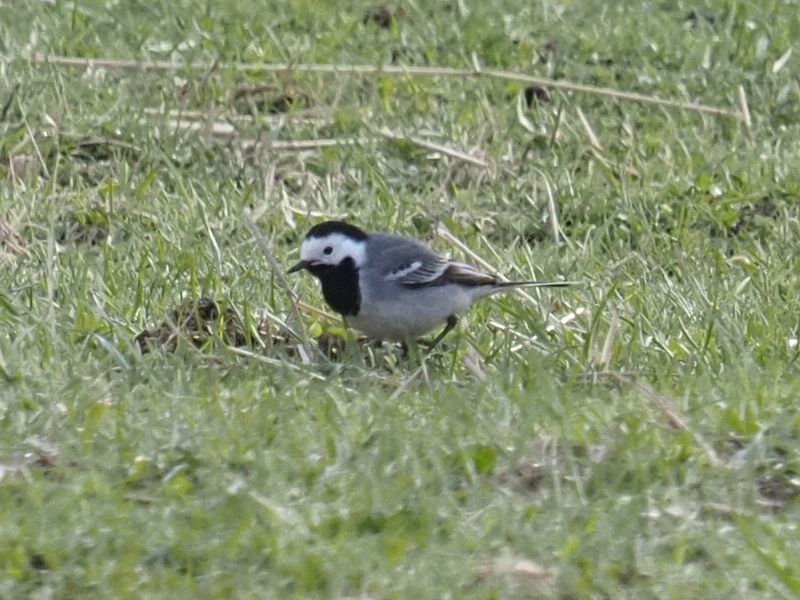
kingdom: Animalia
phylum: Chordata
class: Aves
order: Passeriformes
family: Motacillidae
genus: Motacilla
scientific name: Motacilla alba
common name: White wagtail
